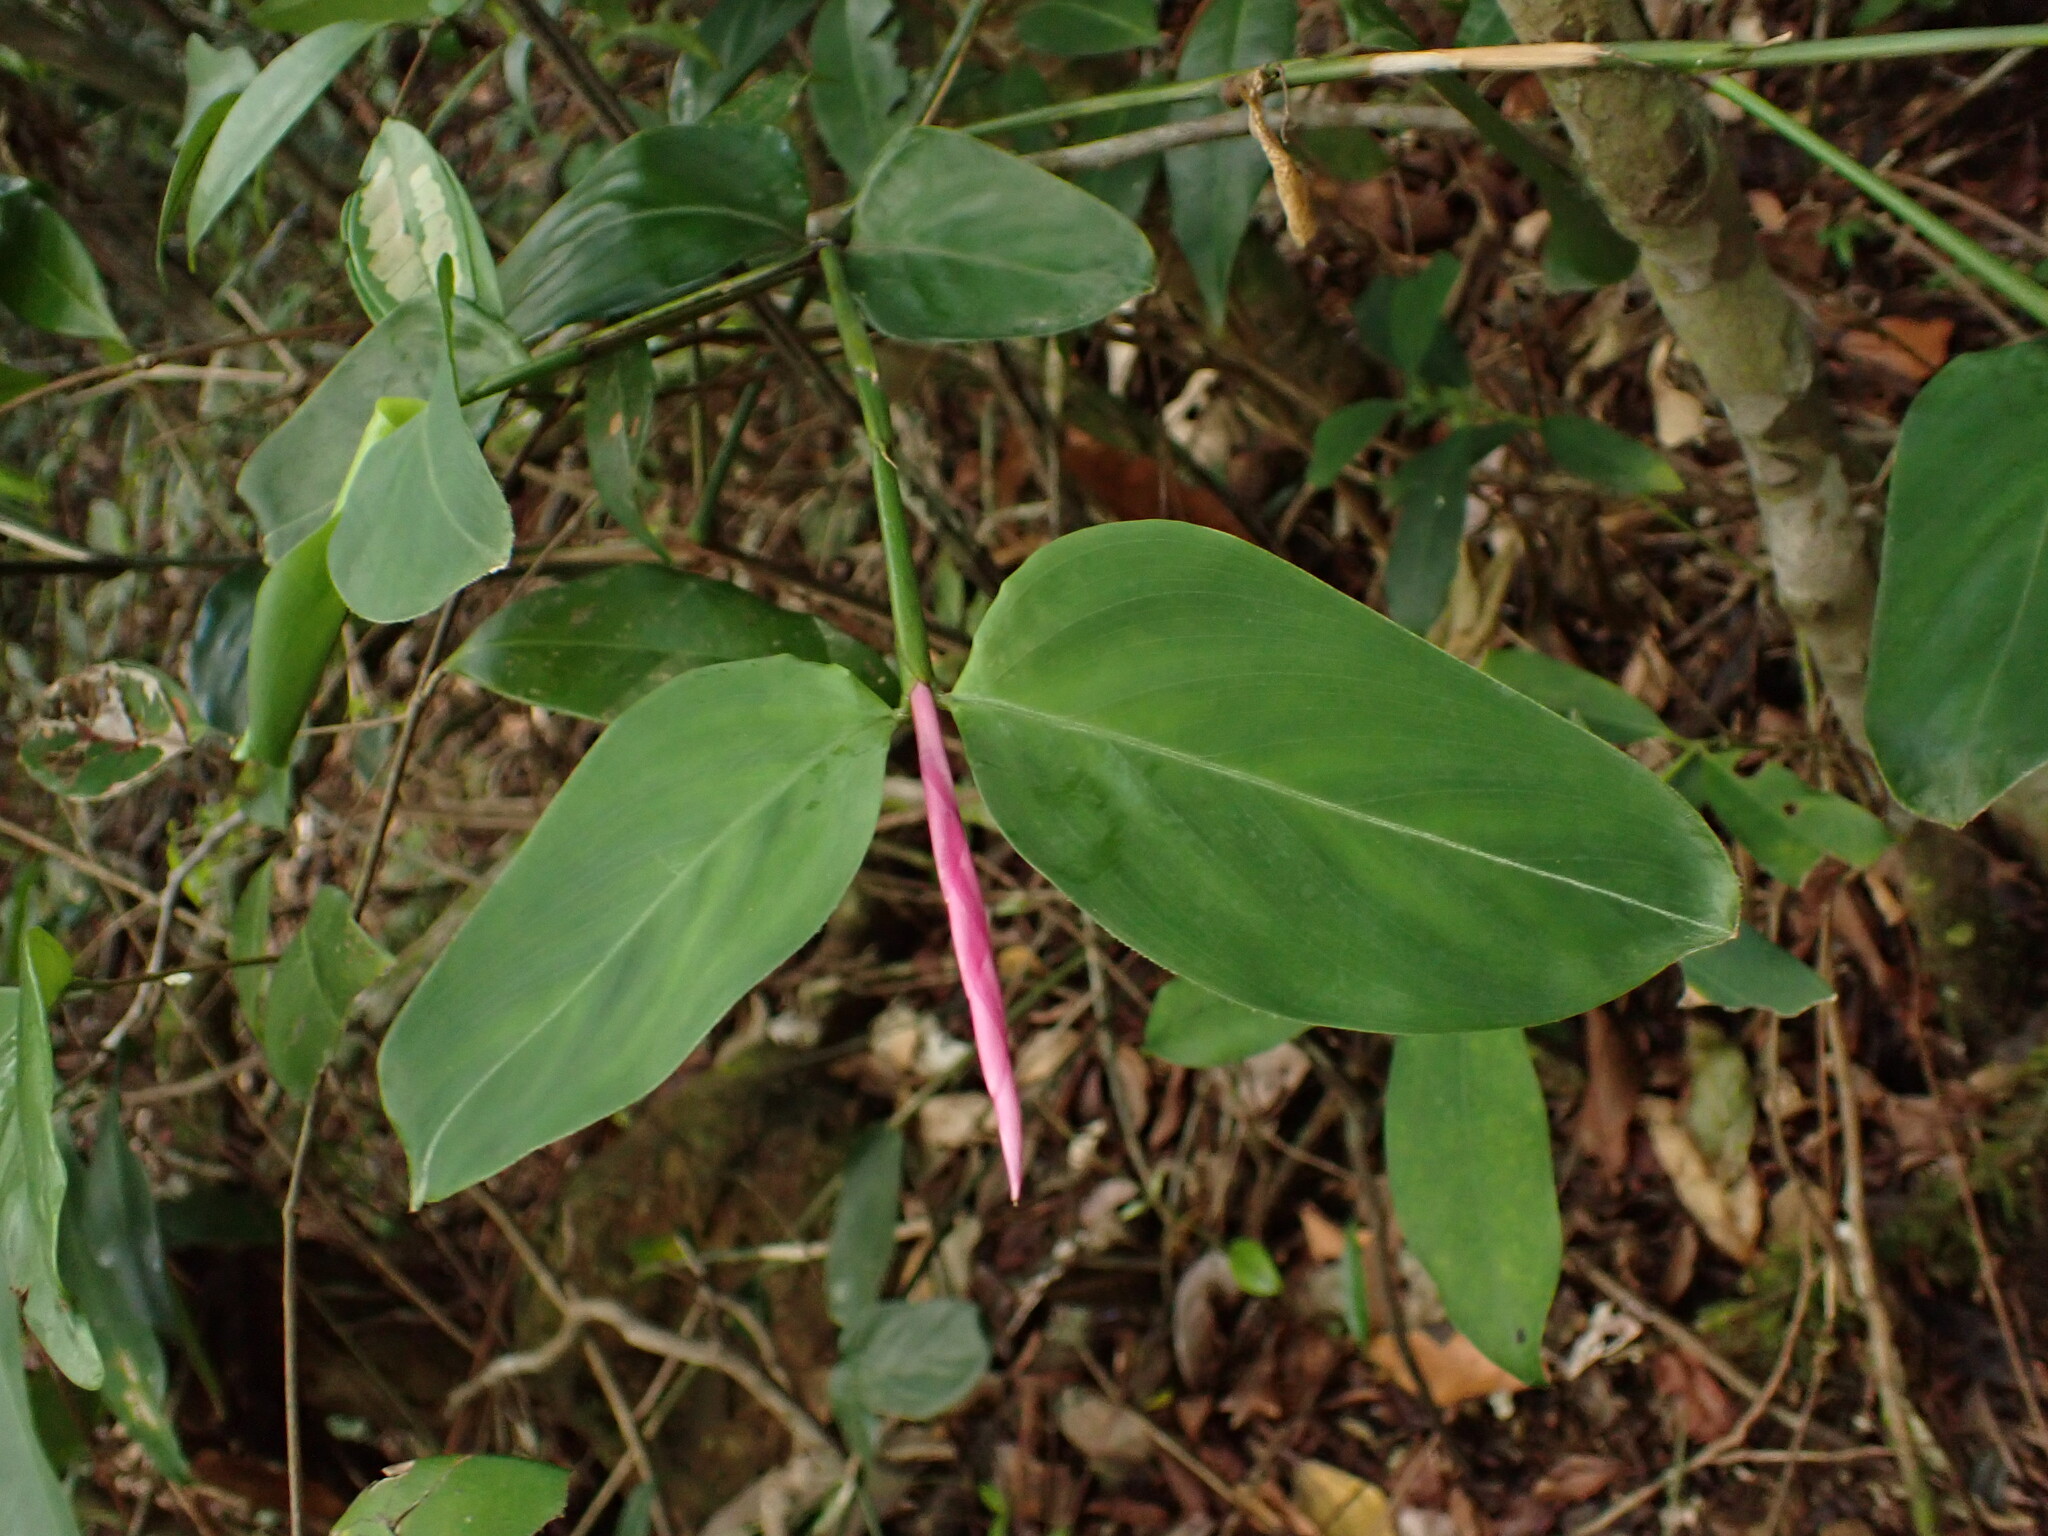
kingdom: Plantae
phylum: Tracheophyta
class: Liliopsida
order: Zingiberales
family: Marantaceae
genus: Stromanthe
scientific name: Stromanthe porteana
